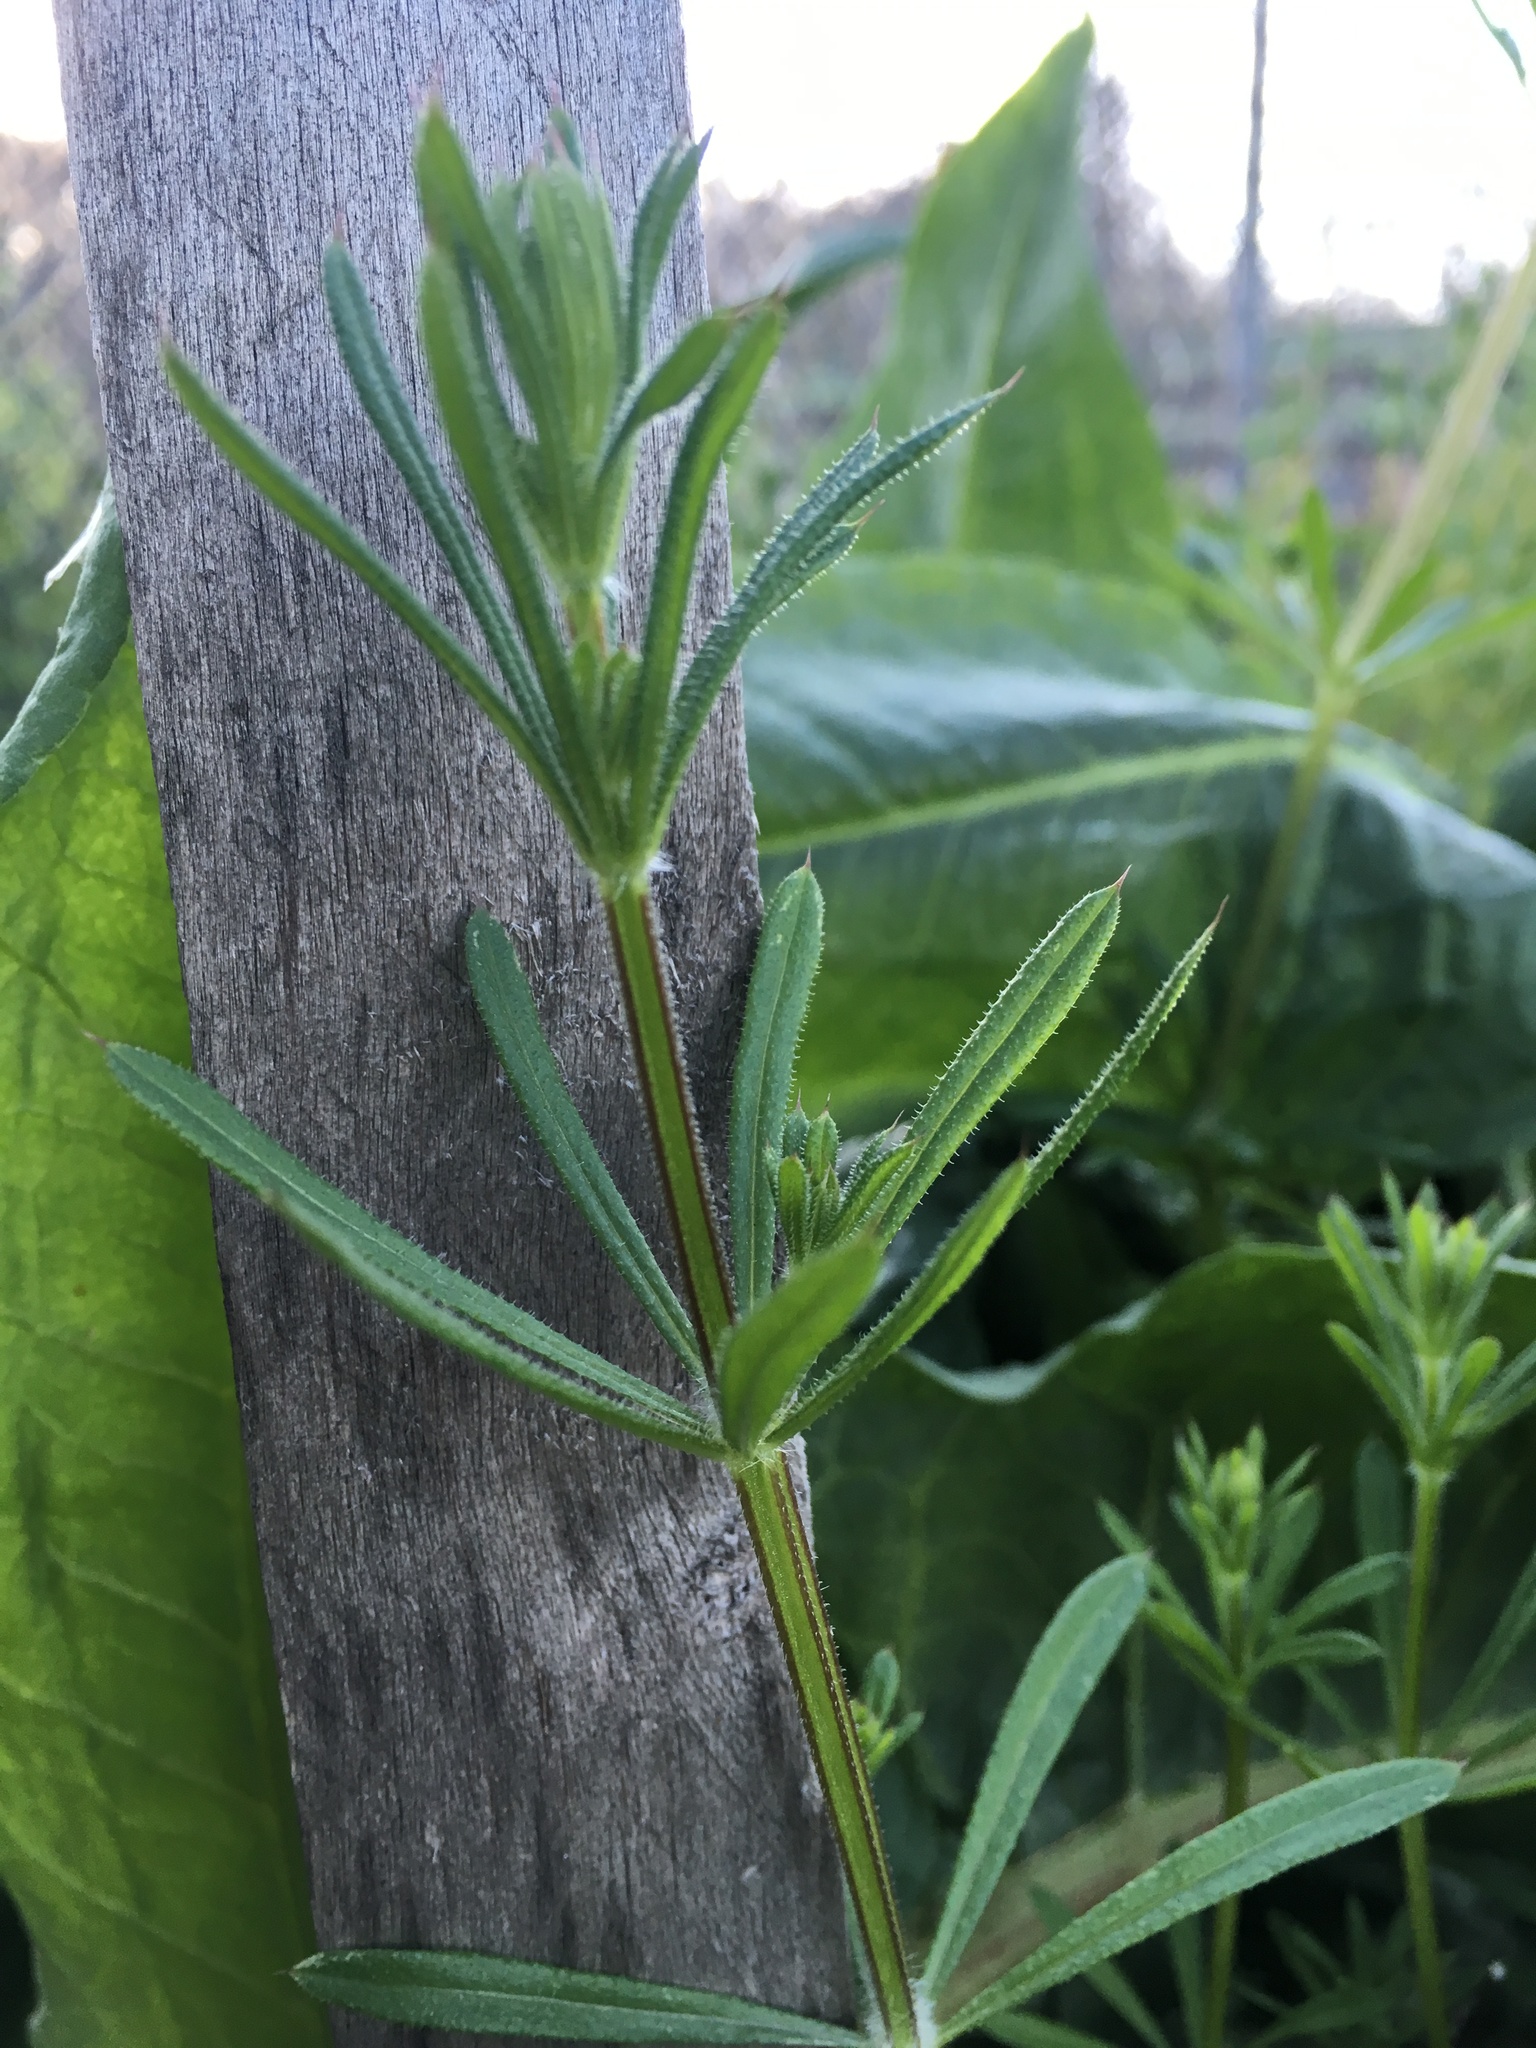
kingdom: Plantae
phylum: Tracheophyta
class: Magnoliopsida
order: Gentianales
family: Rubiaceae
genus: Galium
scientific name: Galium aparine
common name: Cleavers
